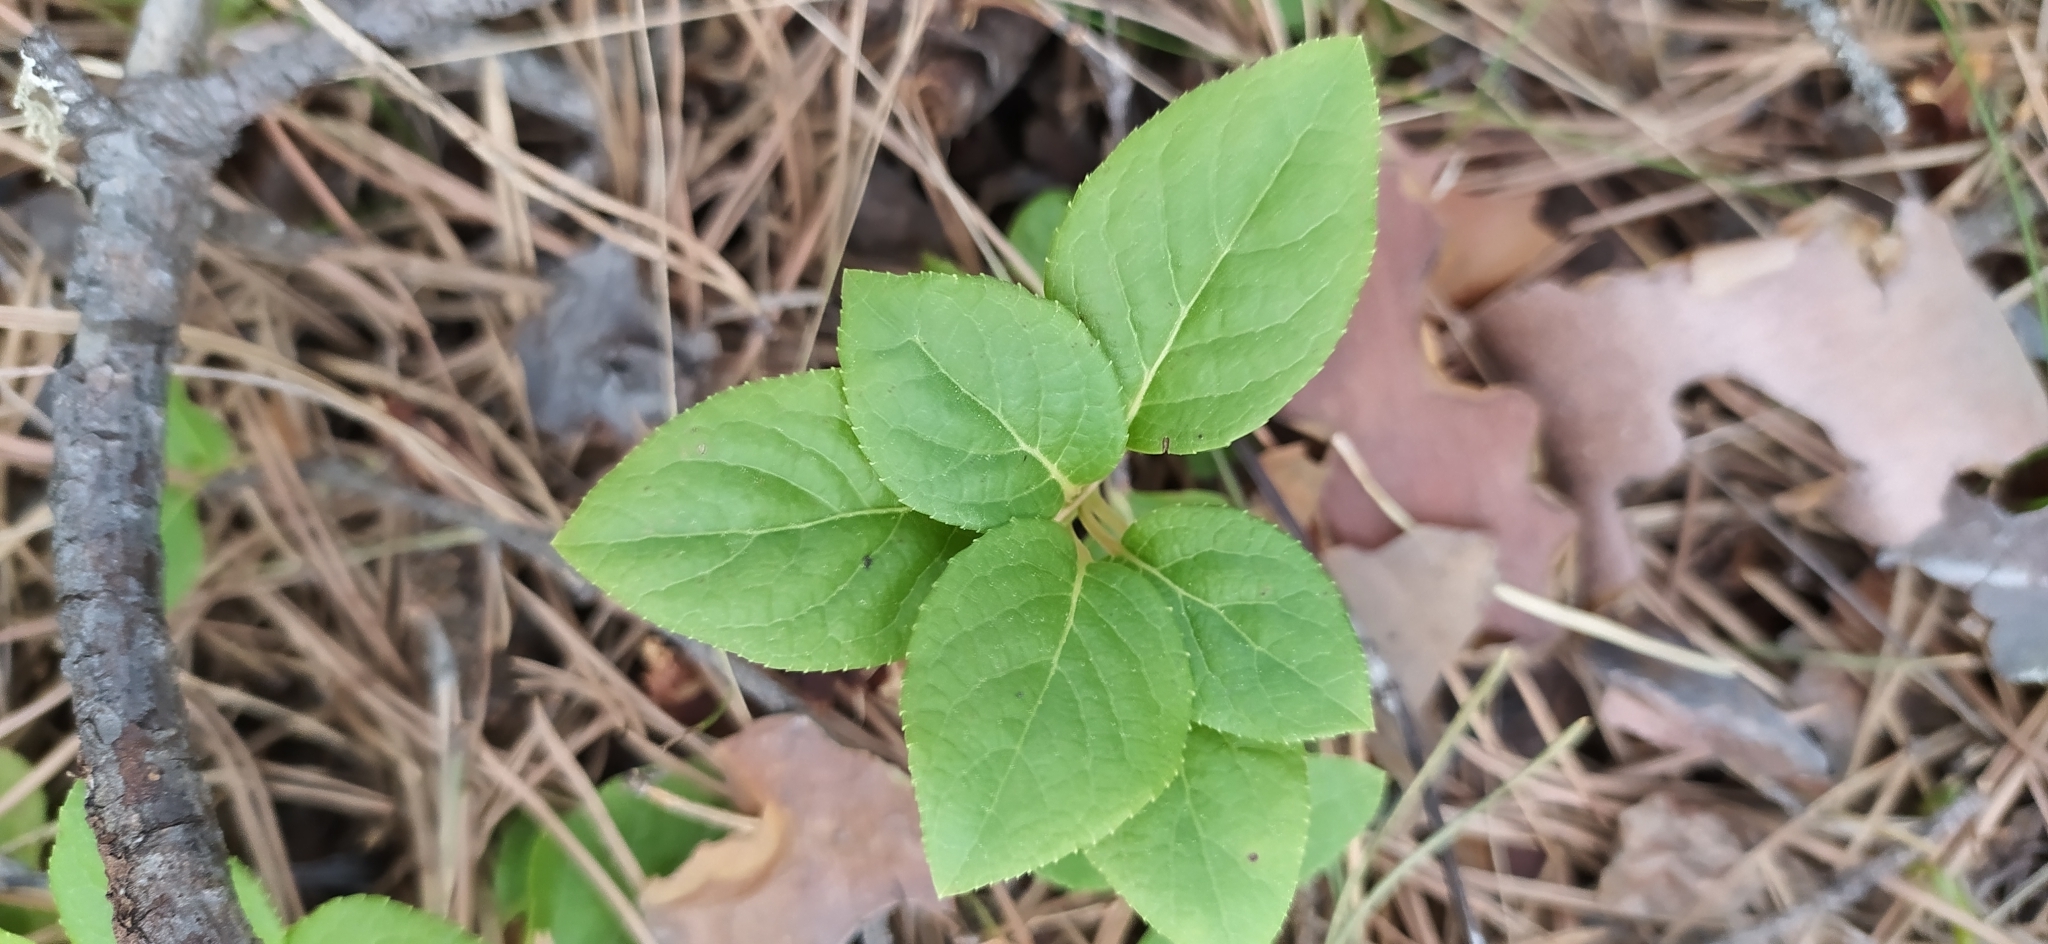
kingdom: Plantae
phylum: Tracheophyta
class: Magnoliopsida
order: Ericales
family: Ericaceae
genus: Orthilia
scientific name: Orthilia secunda
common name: One-sided orthilia
